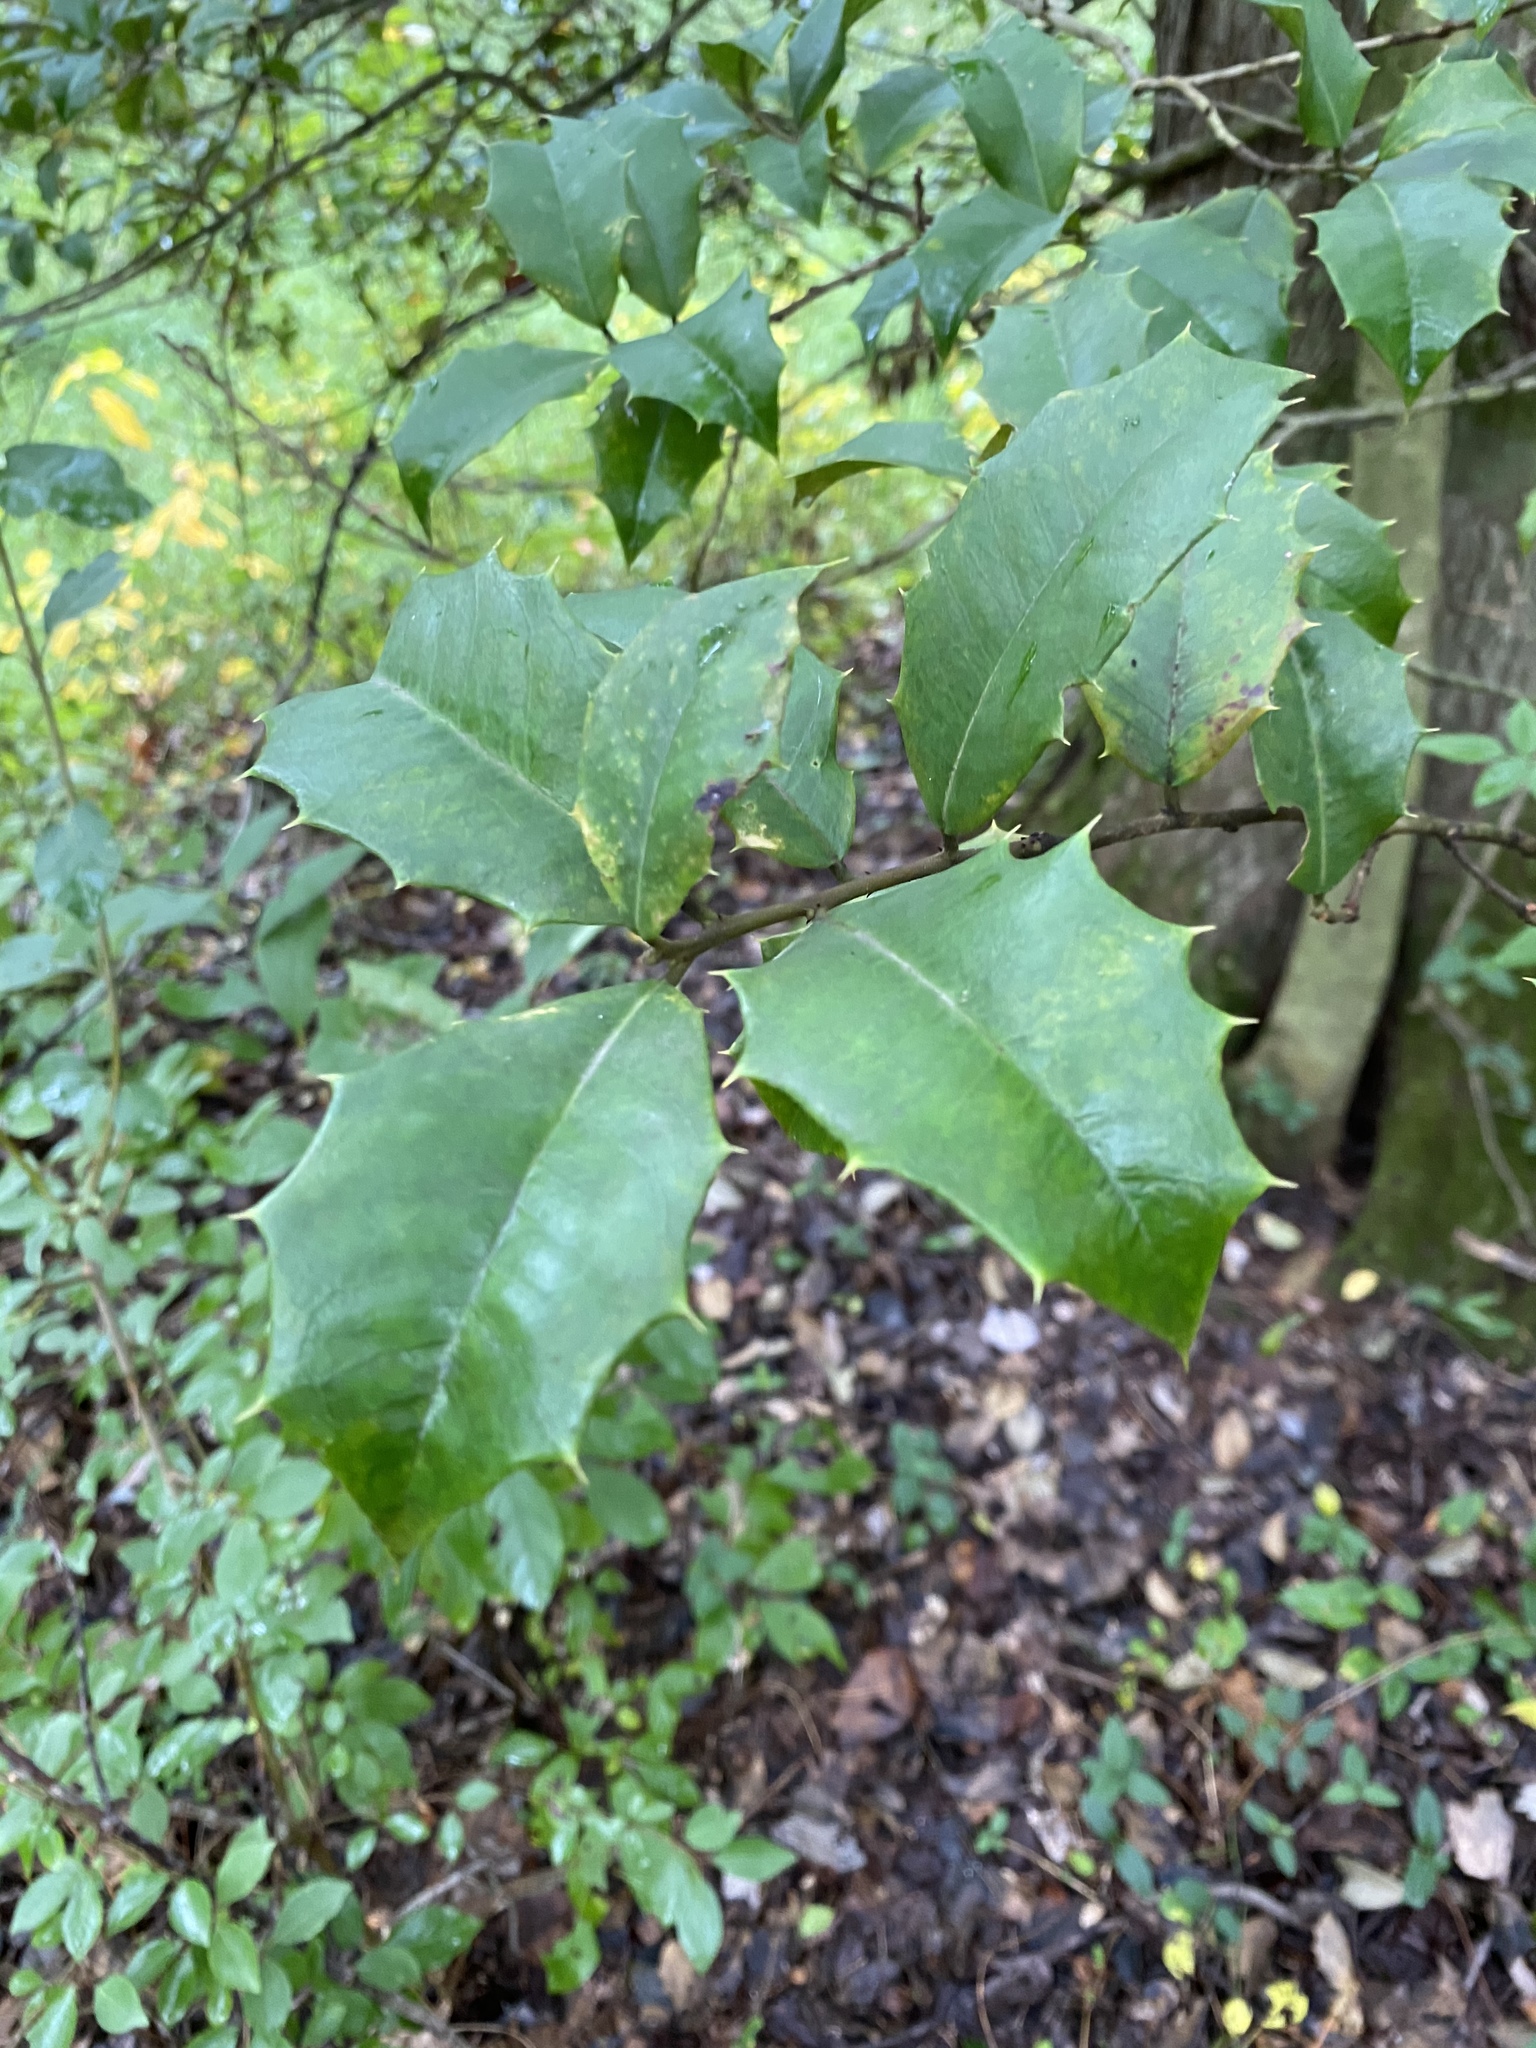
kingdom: Plantae
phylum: Tracheophyta
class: Magnoliopsida
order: Aquifoliales
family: Aquifoliaceae
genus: Ilex
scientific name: Ilex opaca
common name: American holly
